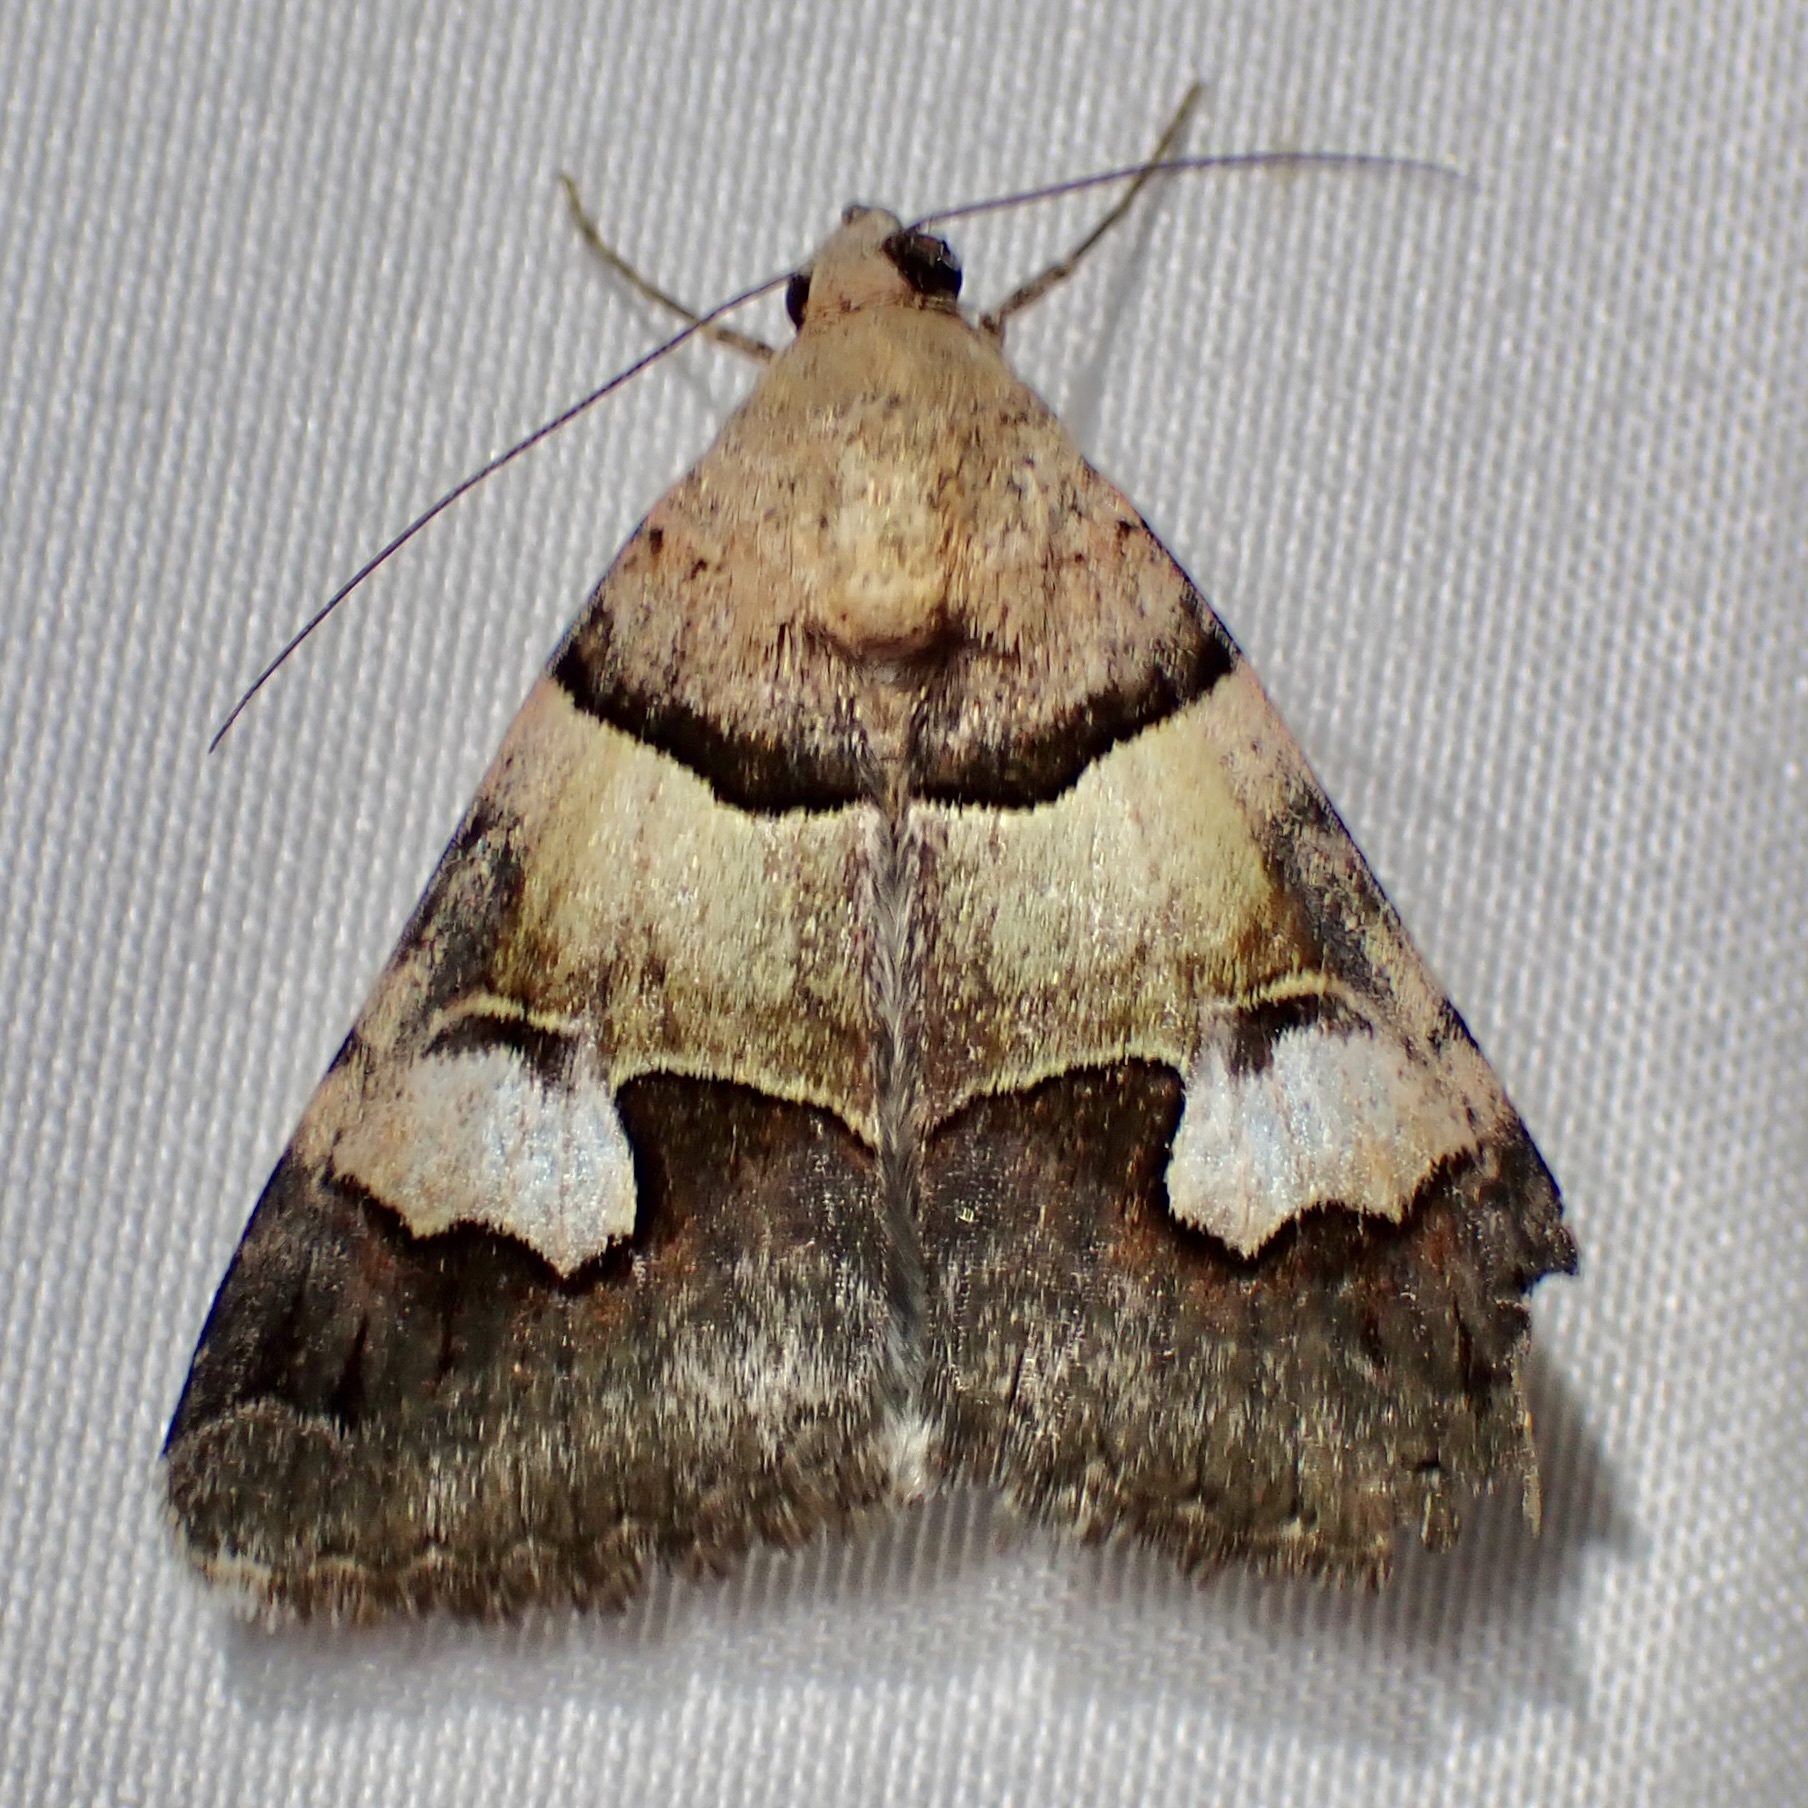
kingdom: Animalia
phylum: Arthropoda
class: Insecta
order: Lepidoptera
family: Erebidae
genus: Drasteria
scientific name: Drasteria pallescens
